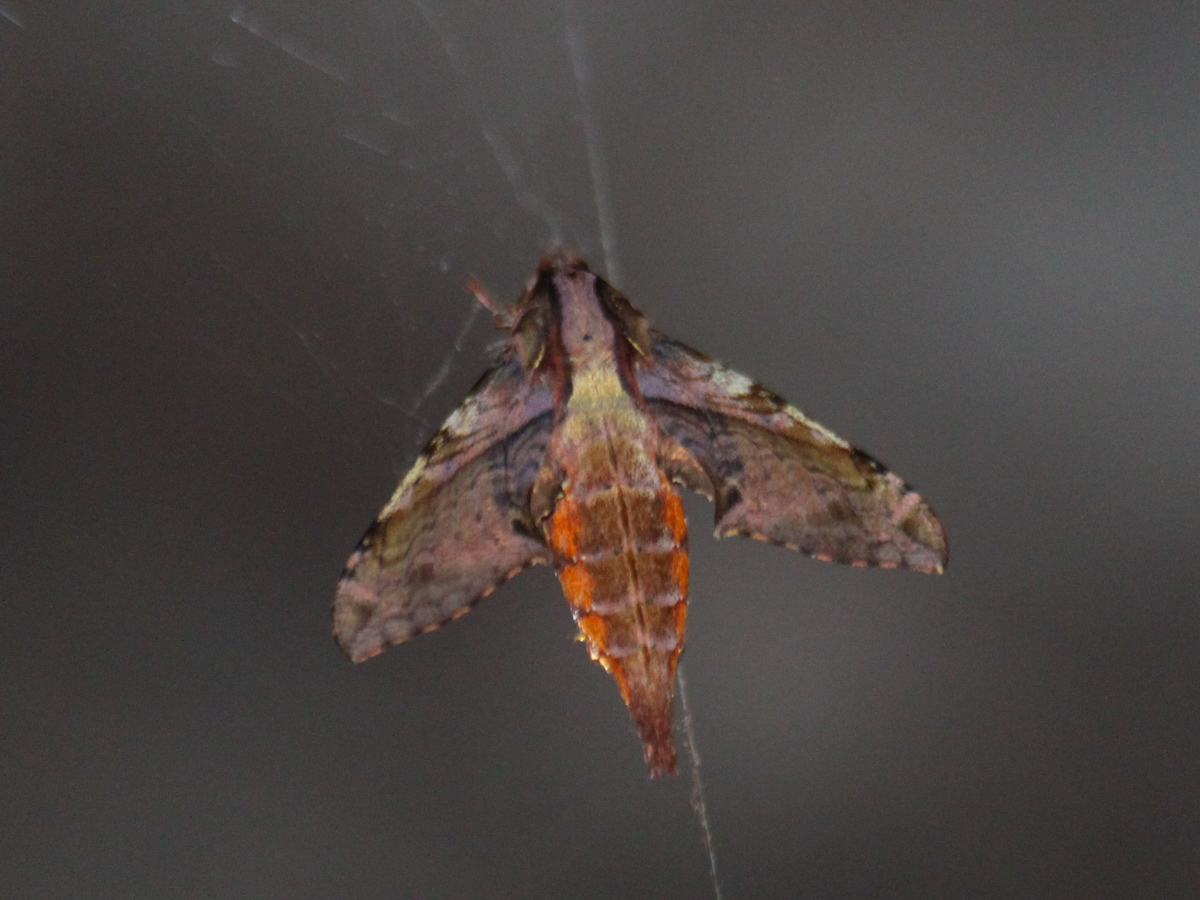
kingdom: Animalia
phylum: Arthropoda
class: Insecta
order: Lepidoptera
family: Sphingidae
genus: Eupanacra
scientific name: Eupanacra mydon
